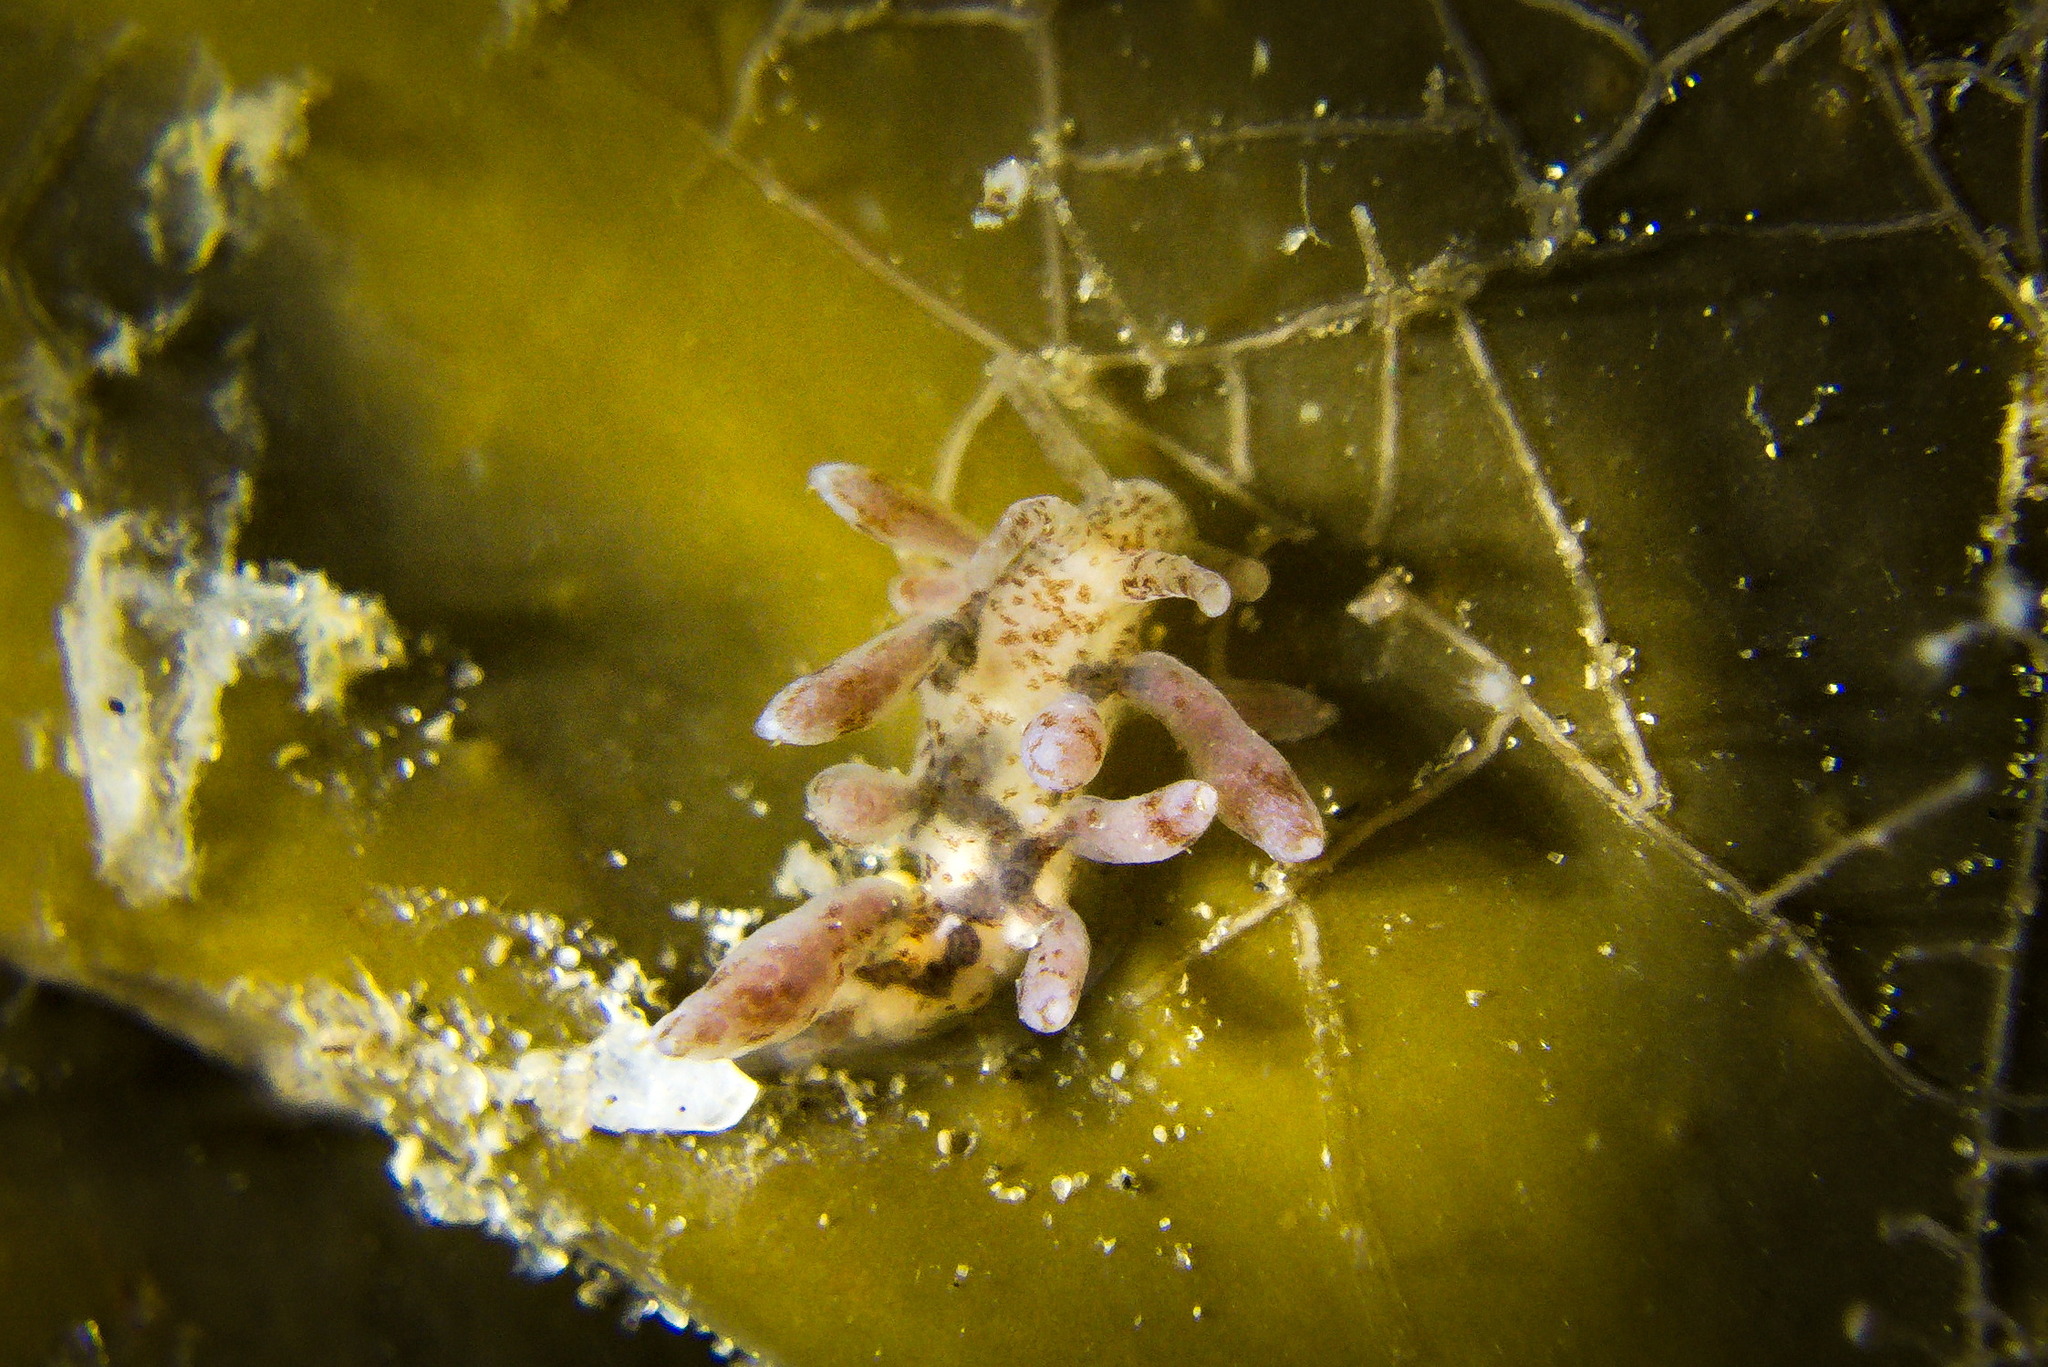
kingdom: Animalia
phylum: Mollusca
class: Gastropoda
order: Nudibranchia
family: Eubranchidae
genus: Eubranchus
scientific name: Eubranchus rupium
